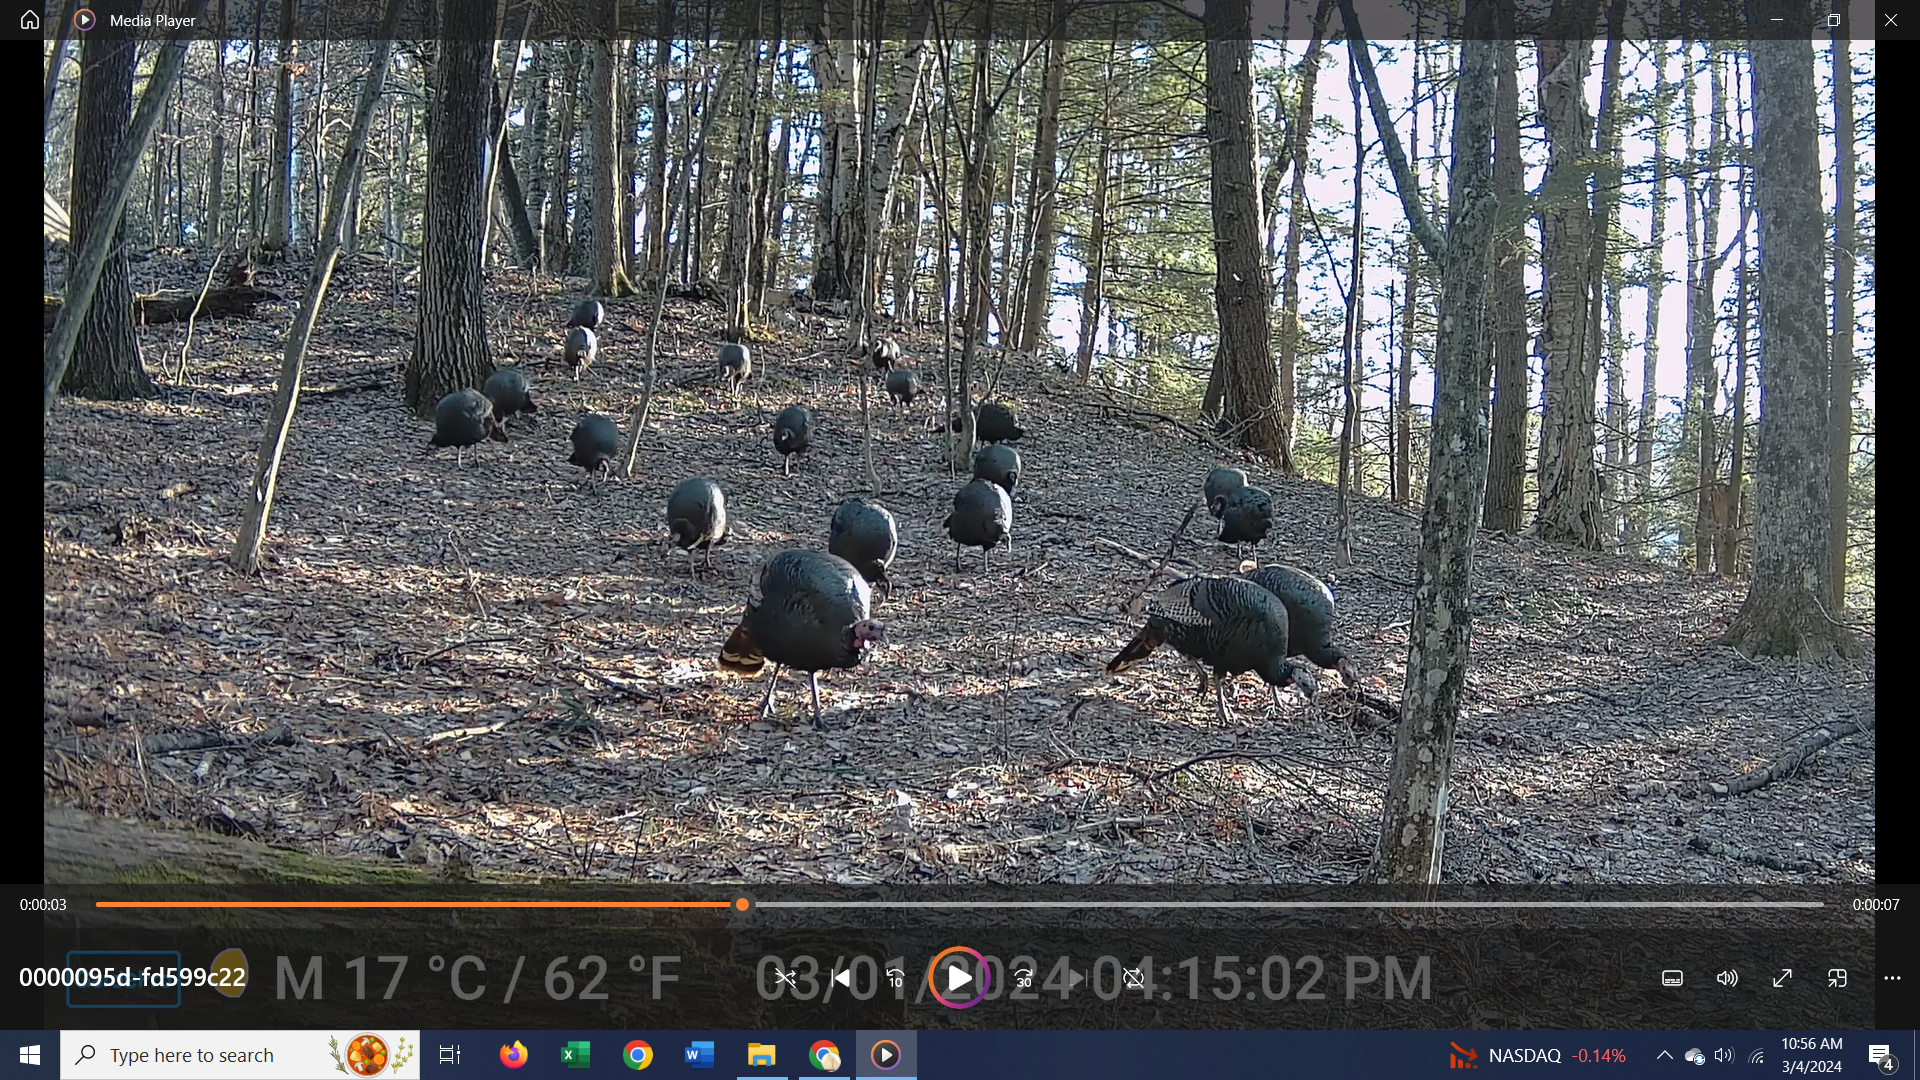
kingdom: Animalia
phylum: Chordata
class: Aves
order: Galliformes
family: Phasianidae
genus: Meleagris
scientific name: Meleagris gallopavo
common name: Wild turkey
